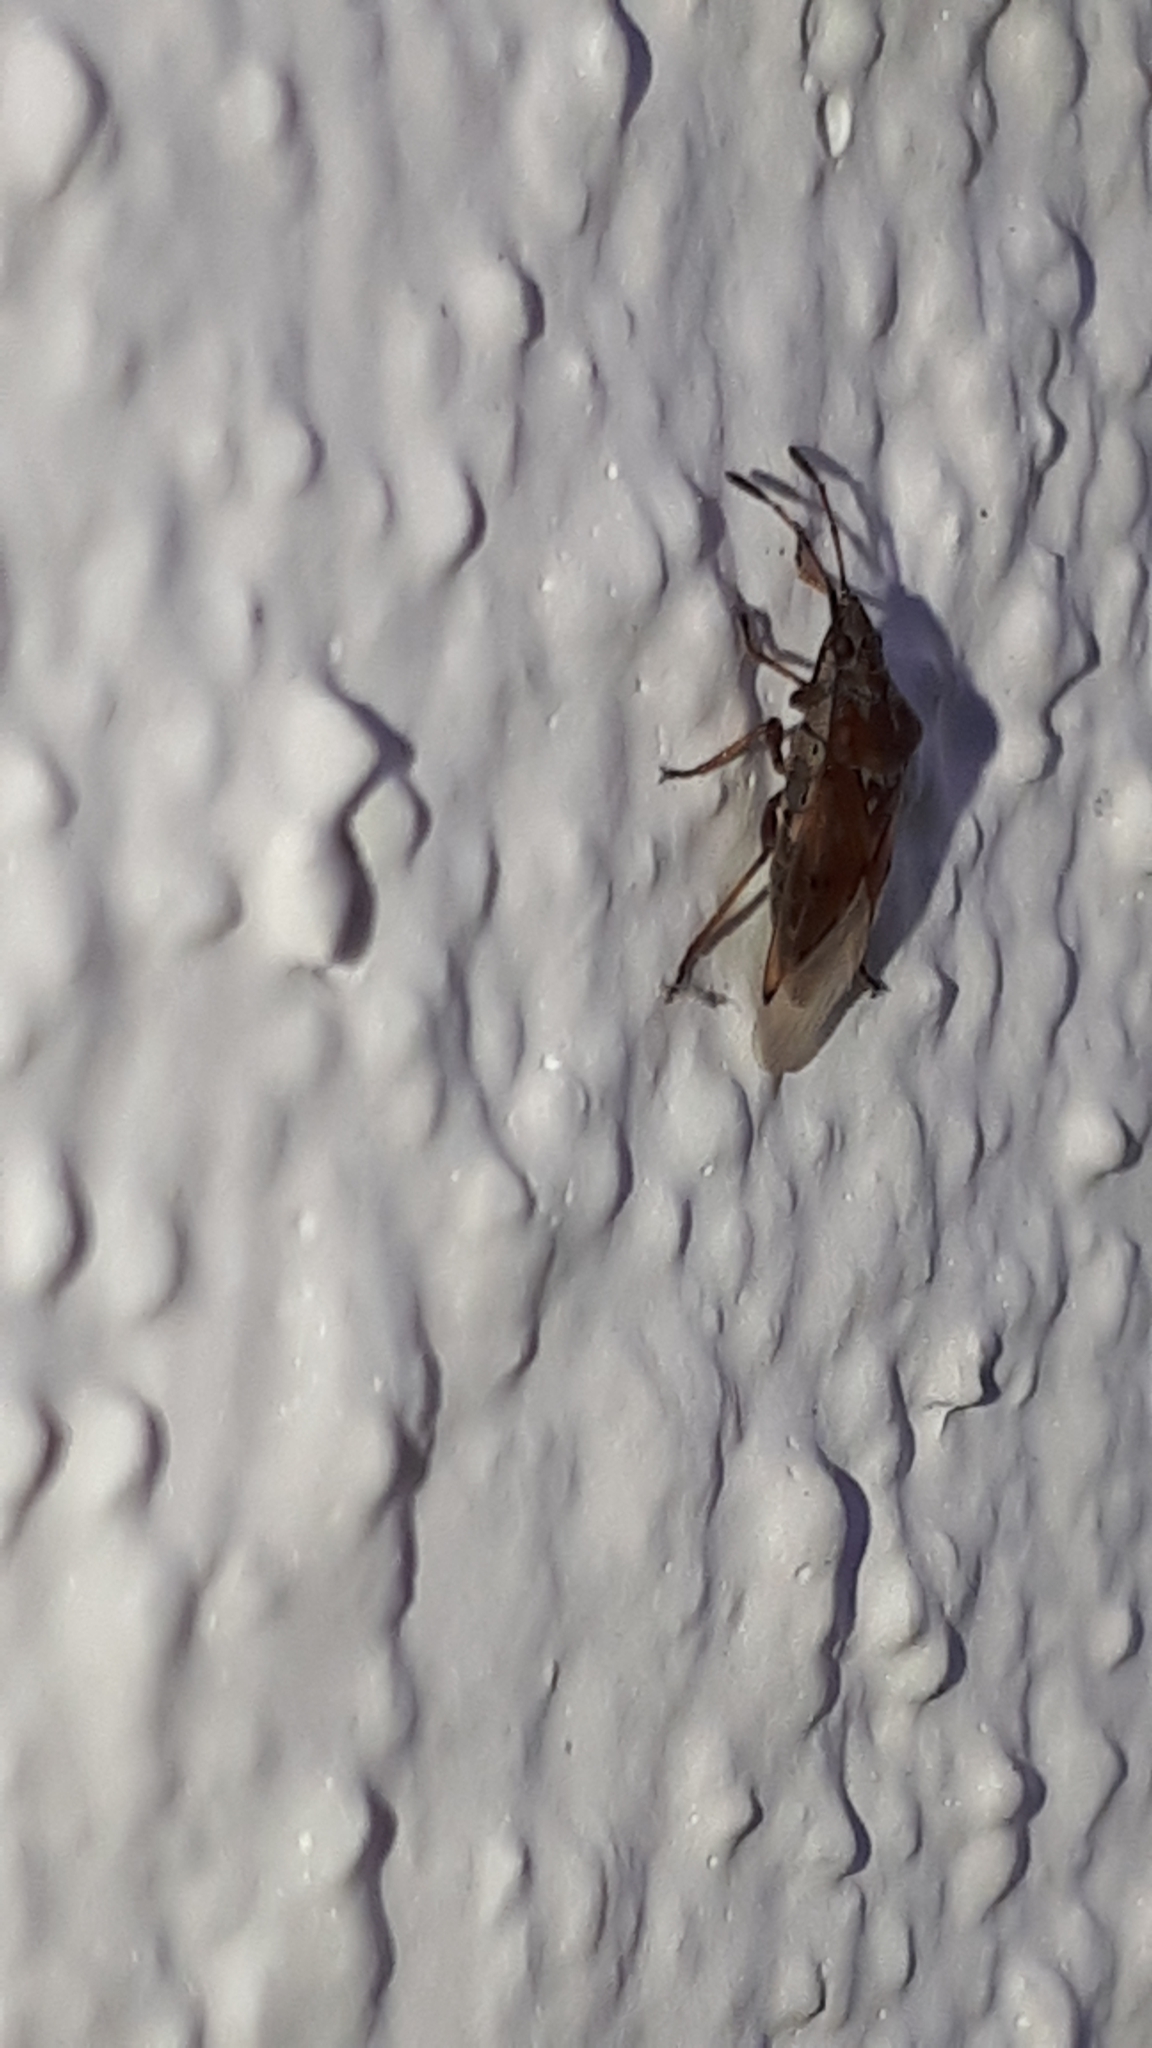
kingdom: Animalia
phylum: Arthropoda
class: Insecta
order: Hemiptera
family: Lygaeidae
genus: Kleidocerys
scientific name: Kleidocerys resedae
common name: Birch catkin bug
